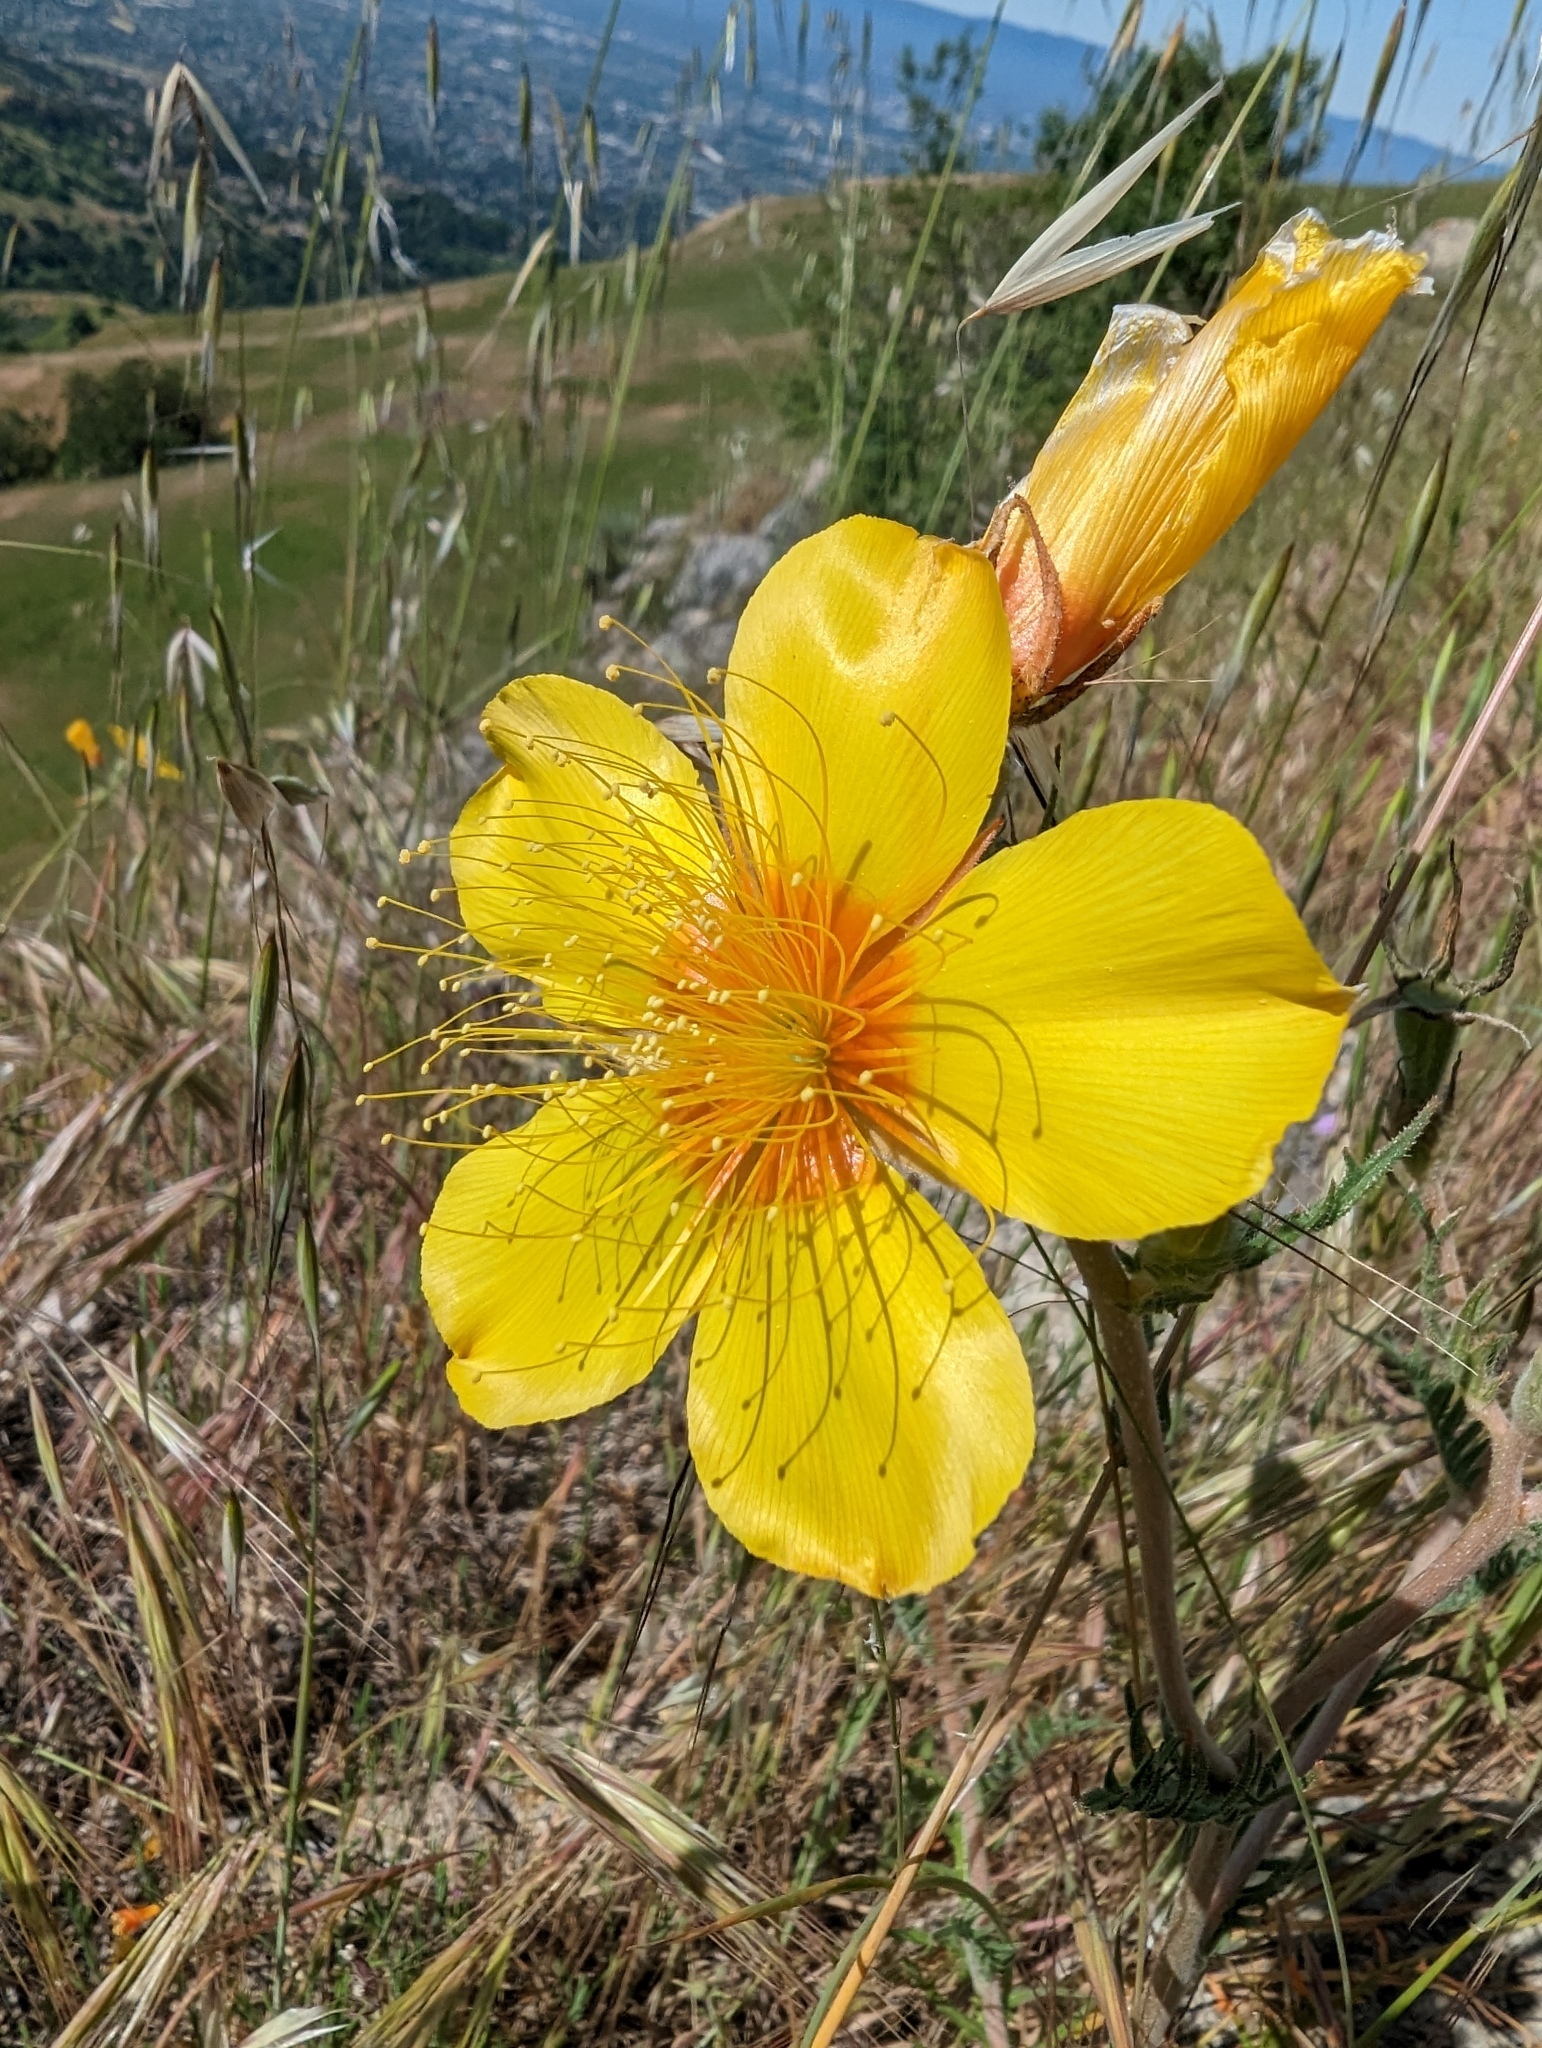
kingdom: Plantae
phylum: Tracheophyta
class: Magnoliopsida
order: Cornales
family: Loasaceae
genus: Mentzelia
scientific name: Mentzelia lindleyi
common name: Golden bartonia
